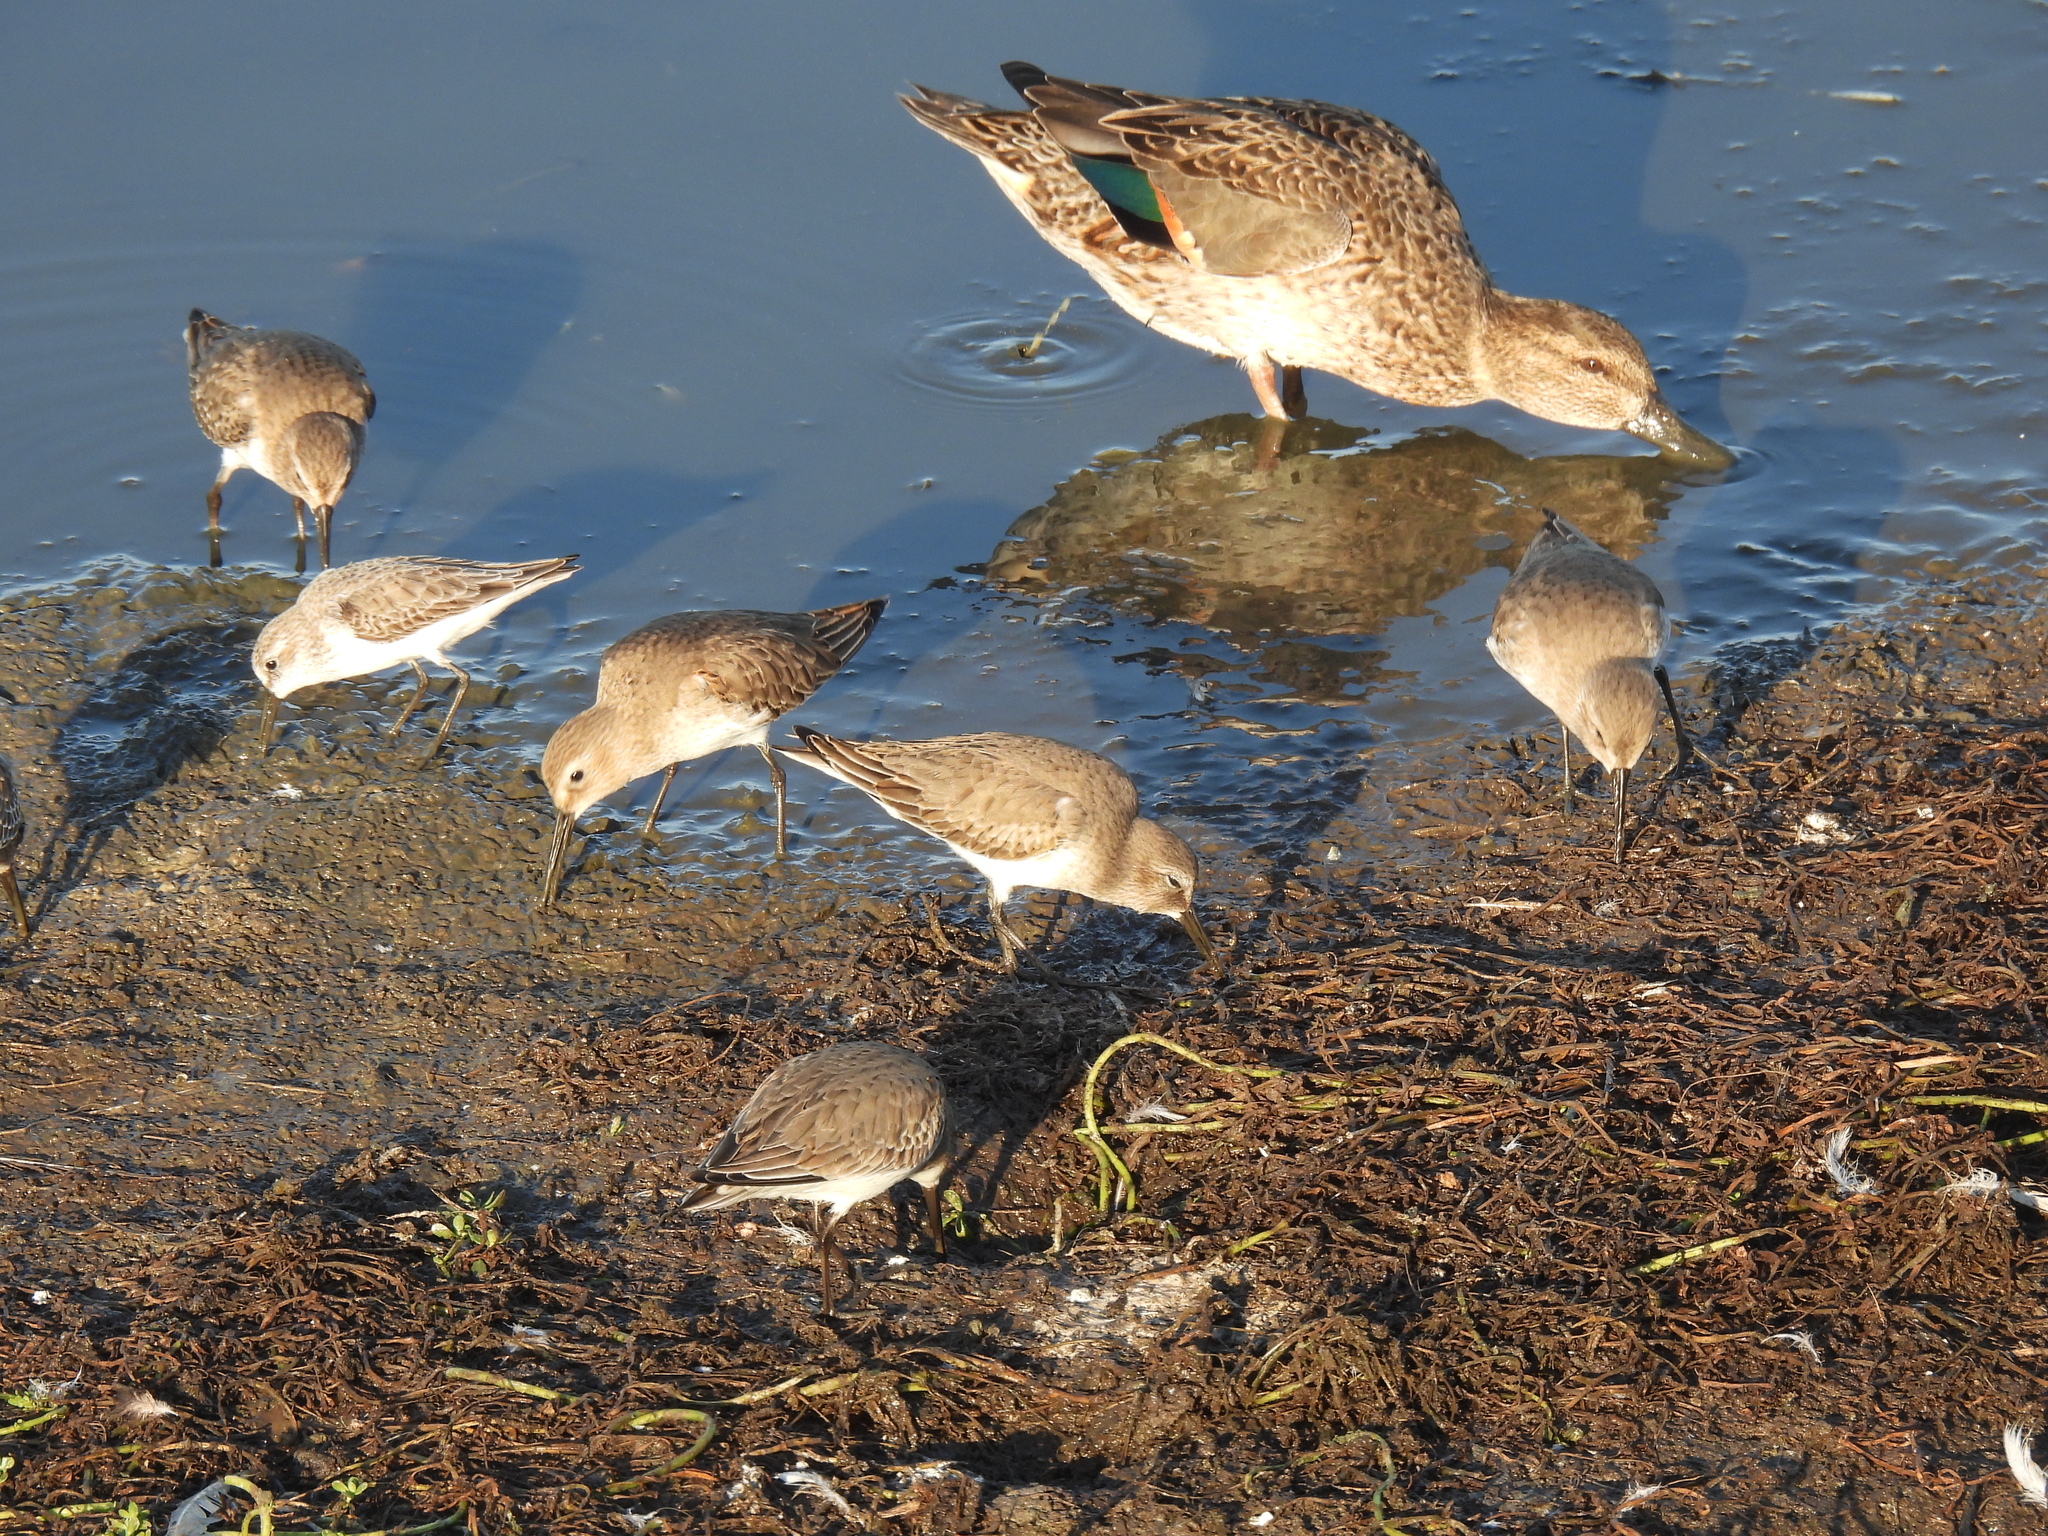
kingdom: Animalia
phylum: Chordata
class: Aves
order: Charadriiformes
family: Scolopacidae
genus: Calidris
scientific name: Calidris alpina
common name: Dunlin
